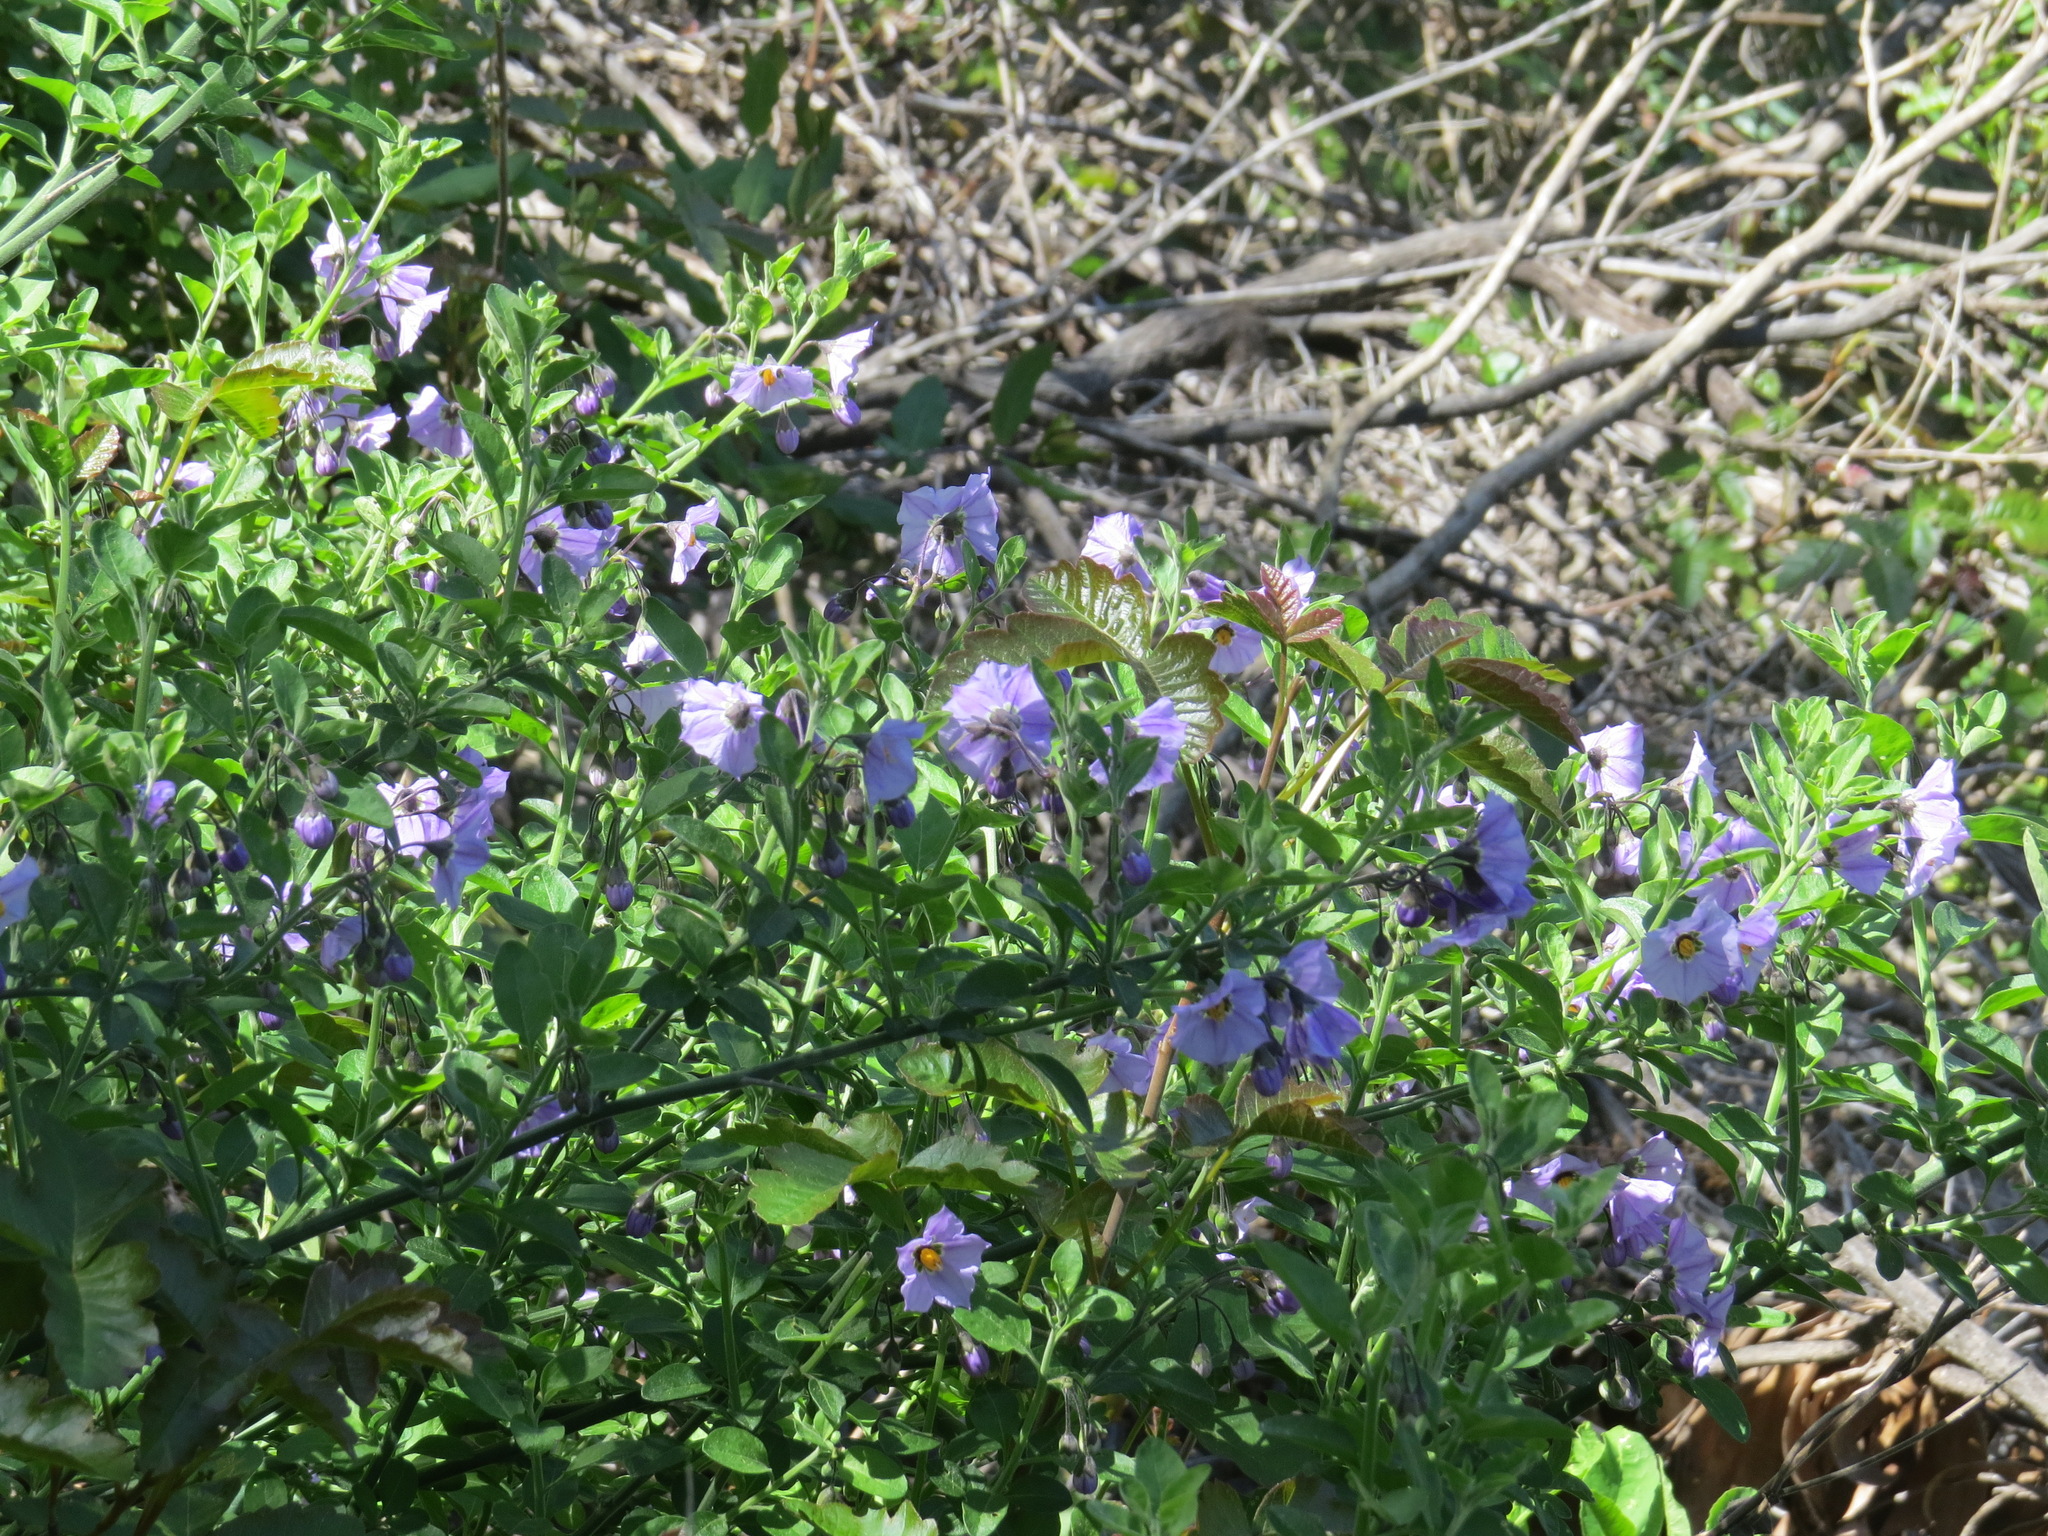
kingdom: Plantae
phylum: Tracheophyta
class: Magnoliopsida
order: Solanales
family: Solanaceae
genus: Solanum
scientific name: Solanum umbelliferum
